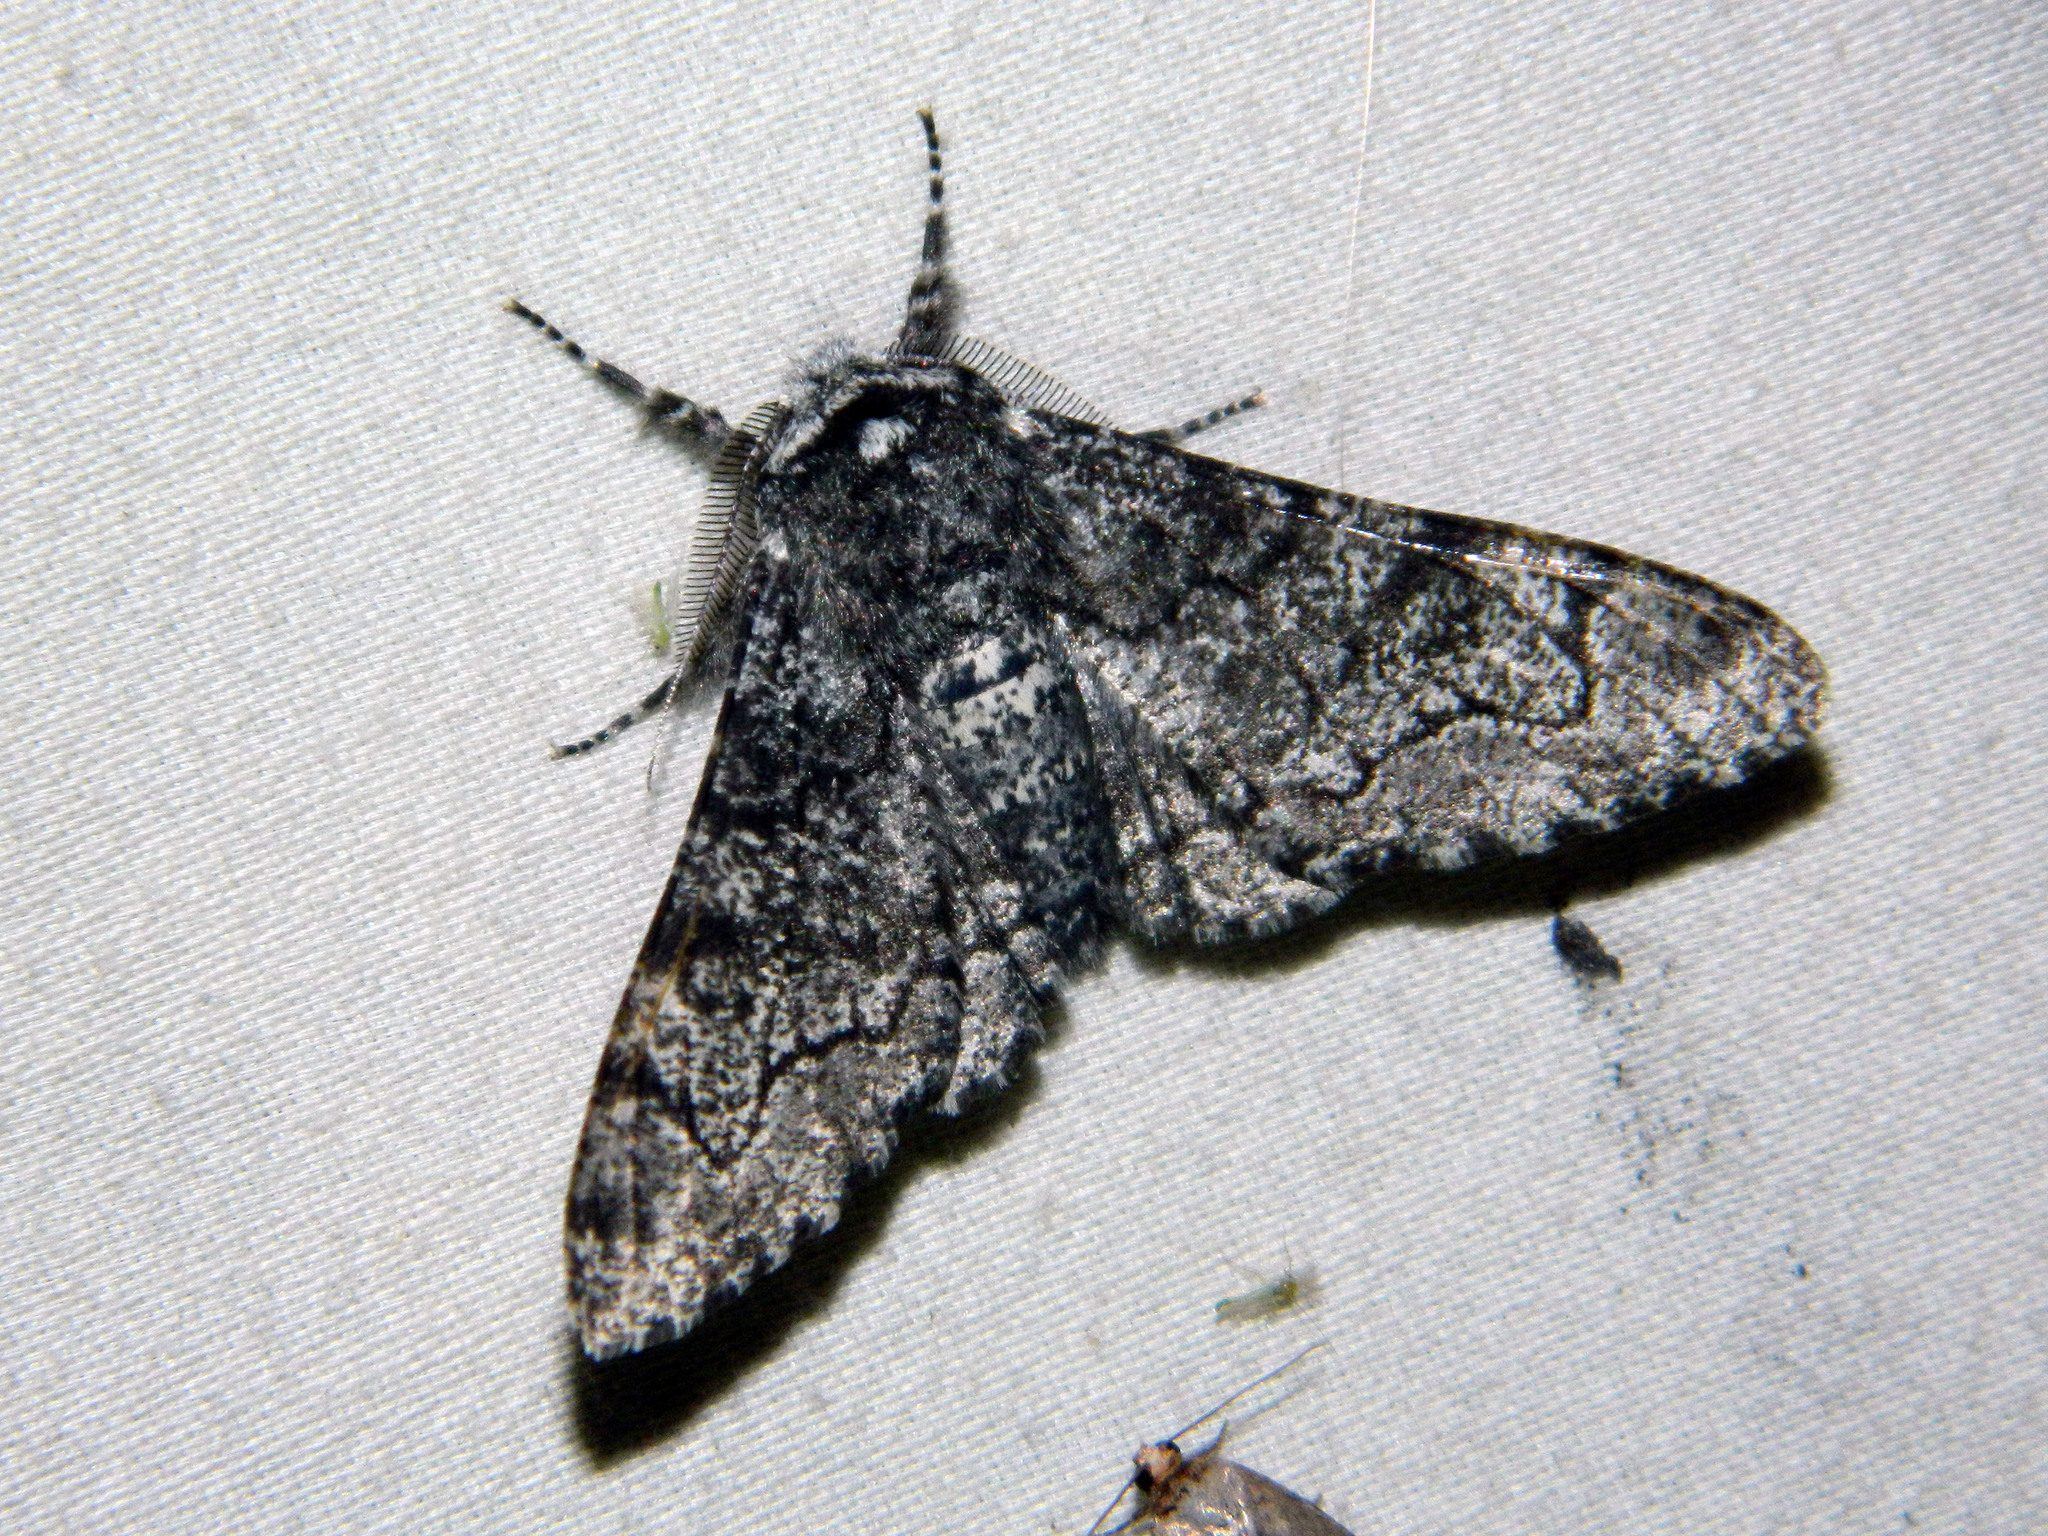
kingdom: Animalia
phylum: Arthropoda
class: Insecta
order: Lepidoptera
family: Geometridae
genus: Biston
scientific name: Biston betularia
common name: Peppered moth
